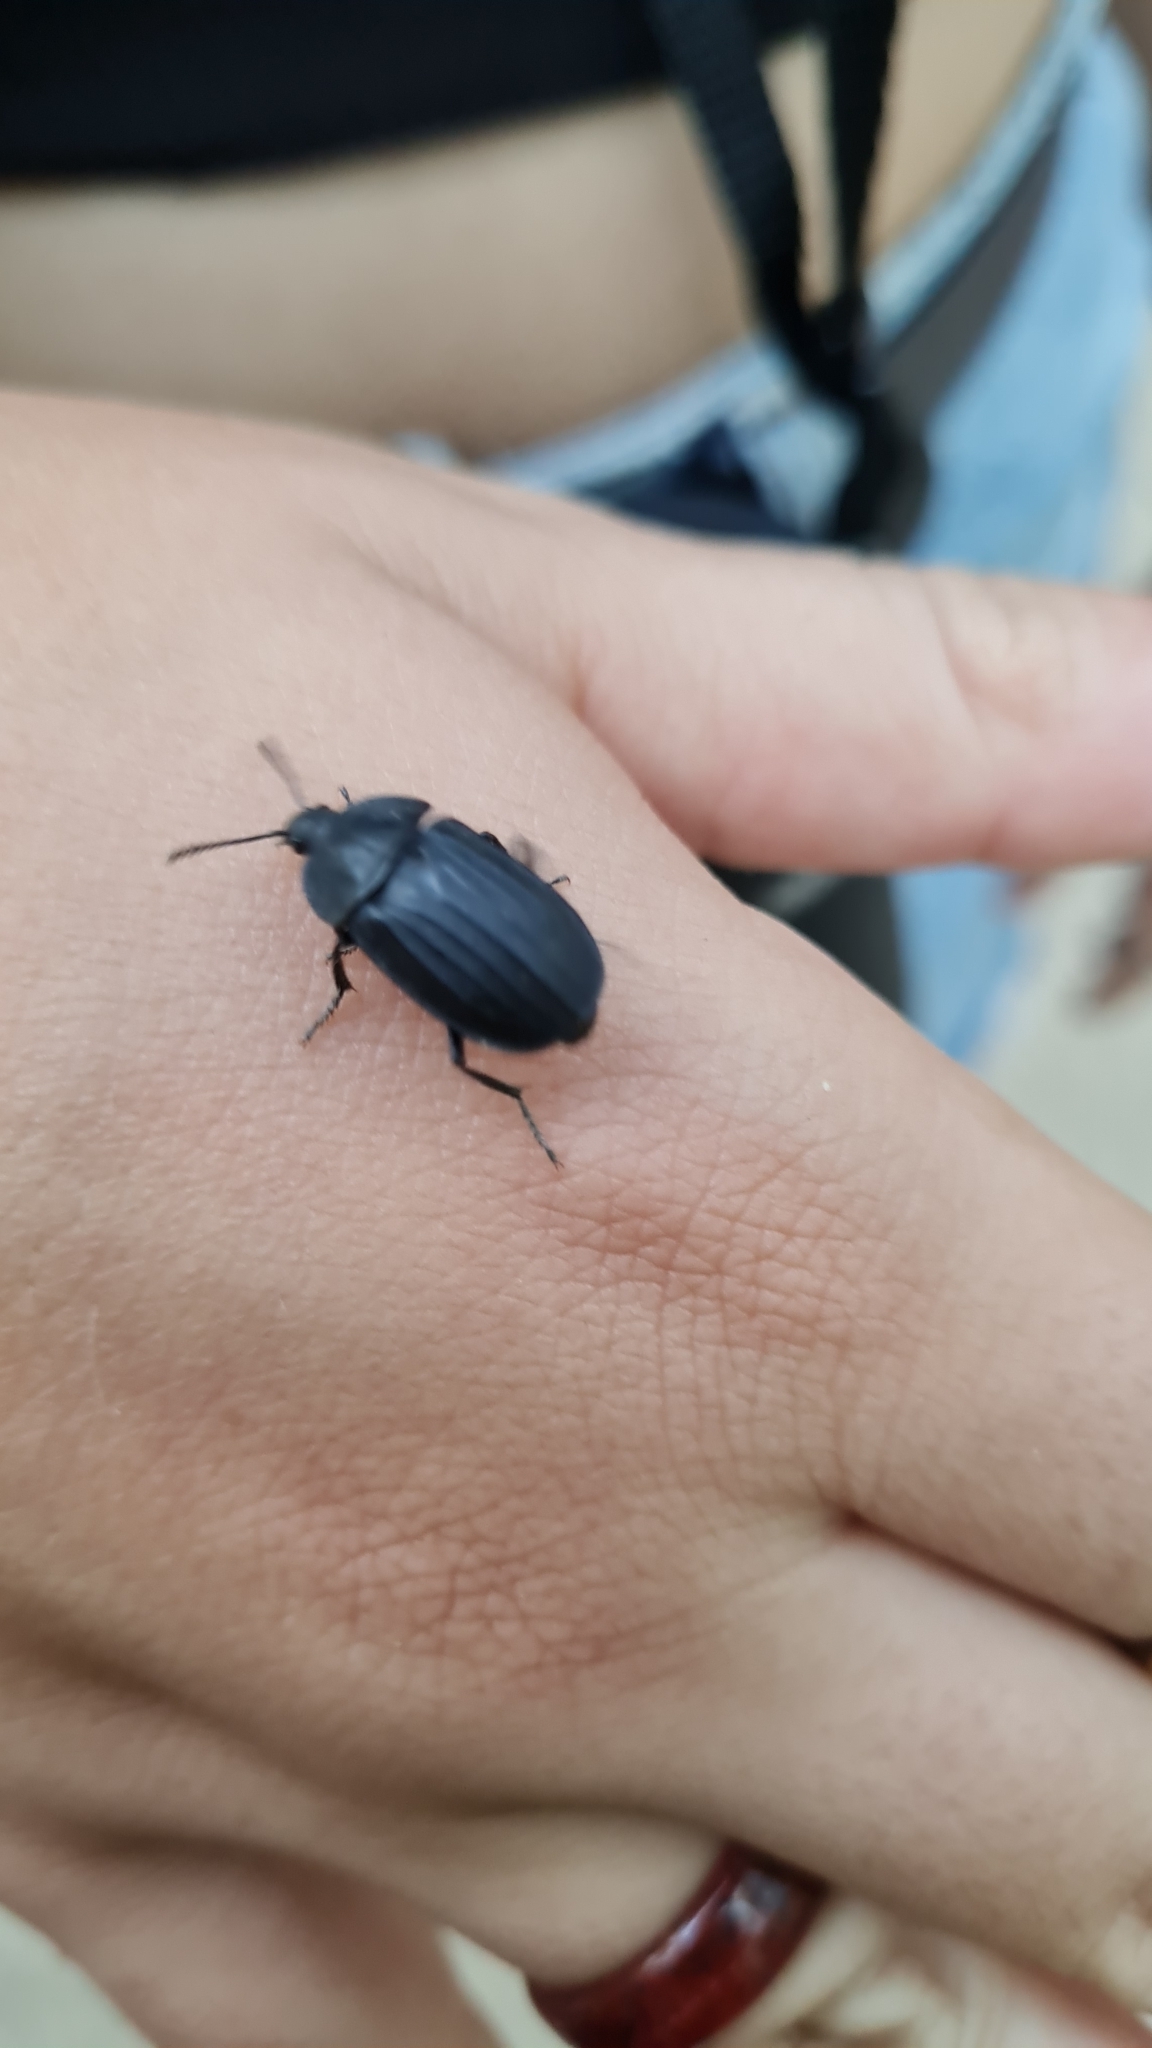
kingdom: Animalia
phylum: Arthropoda
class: Insecta
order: Coleoptera
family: Staphylinidae
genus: Silpha
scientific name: Silpha tristis
